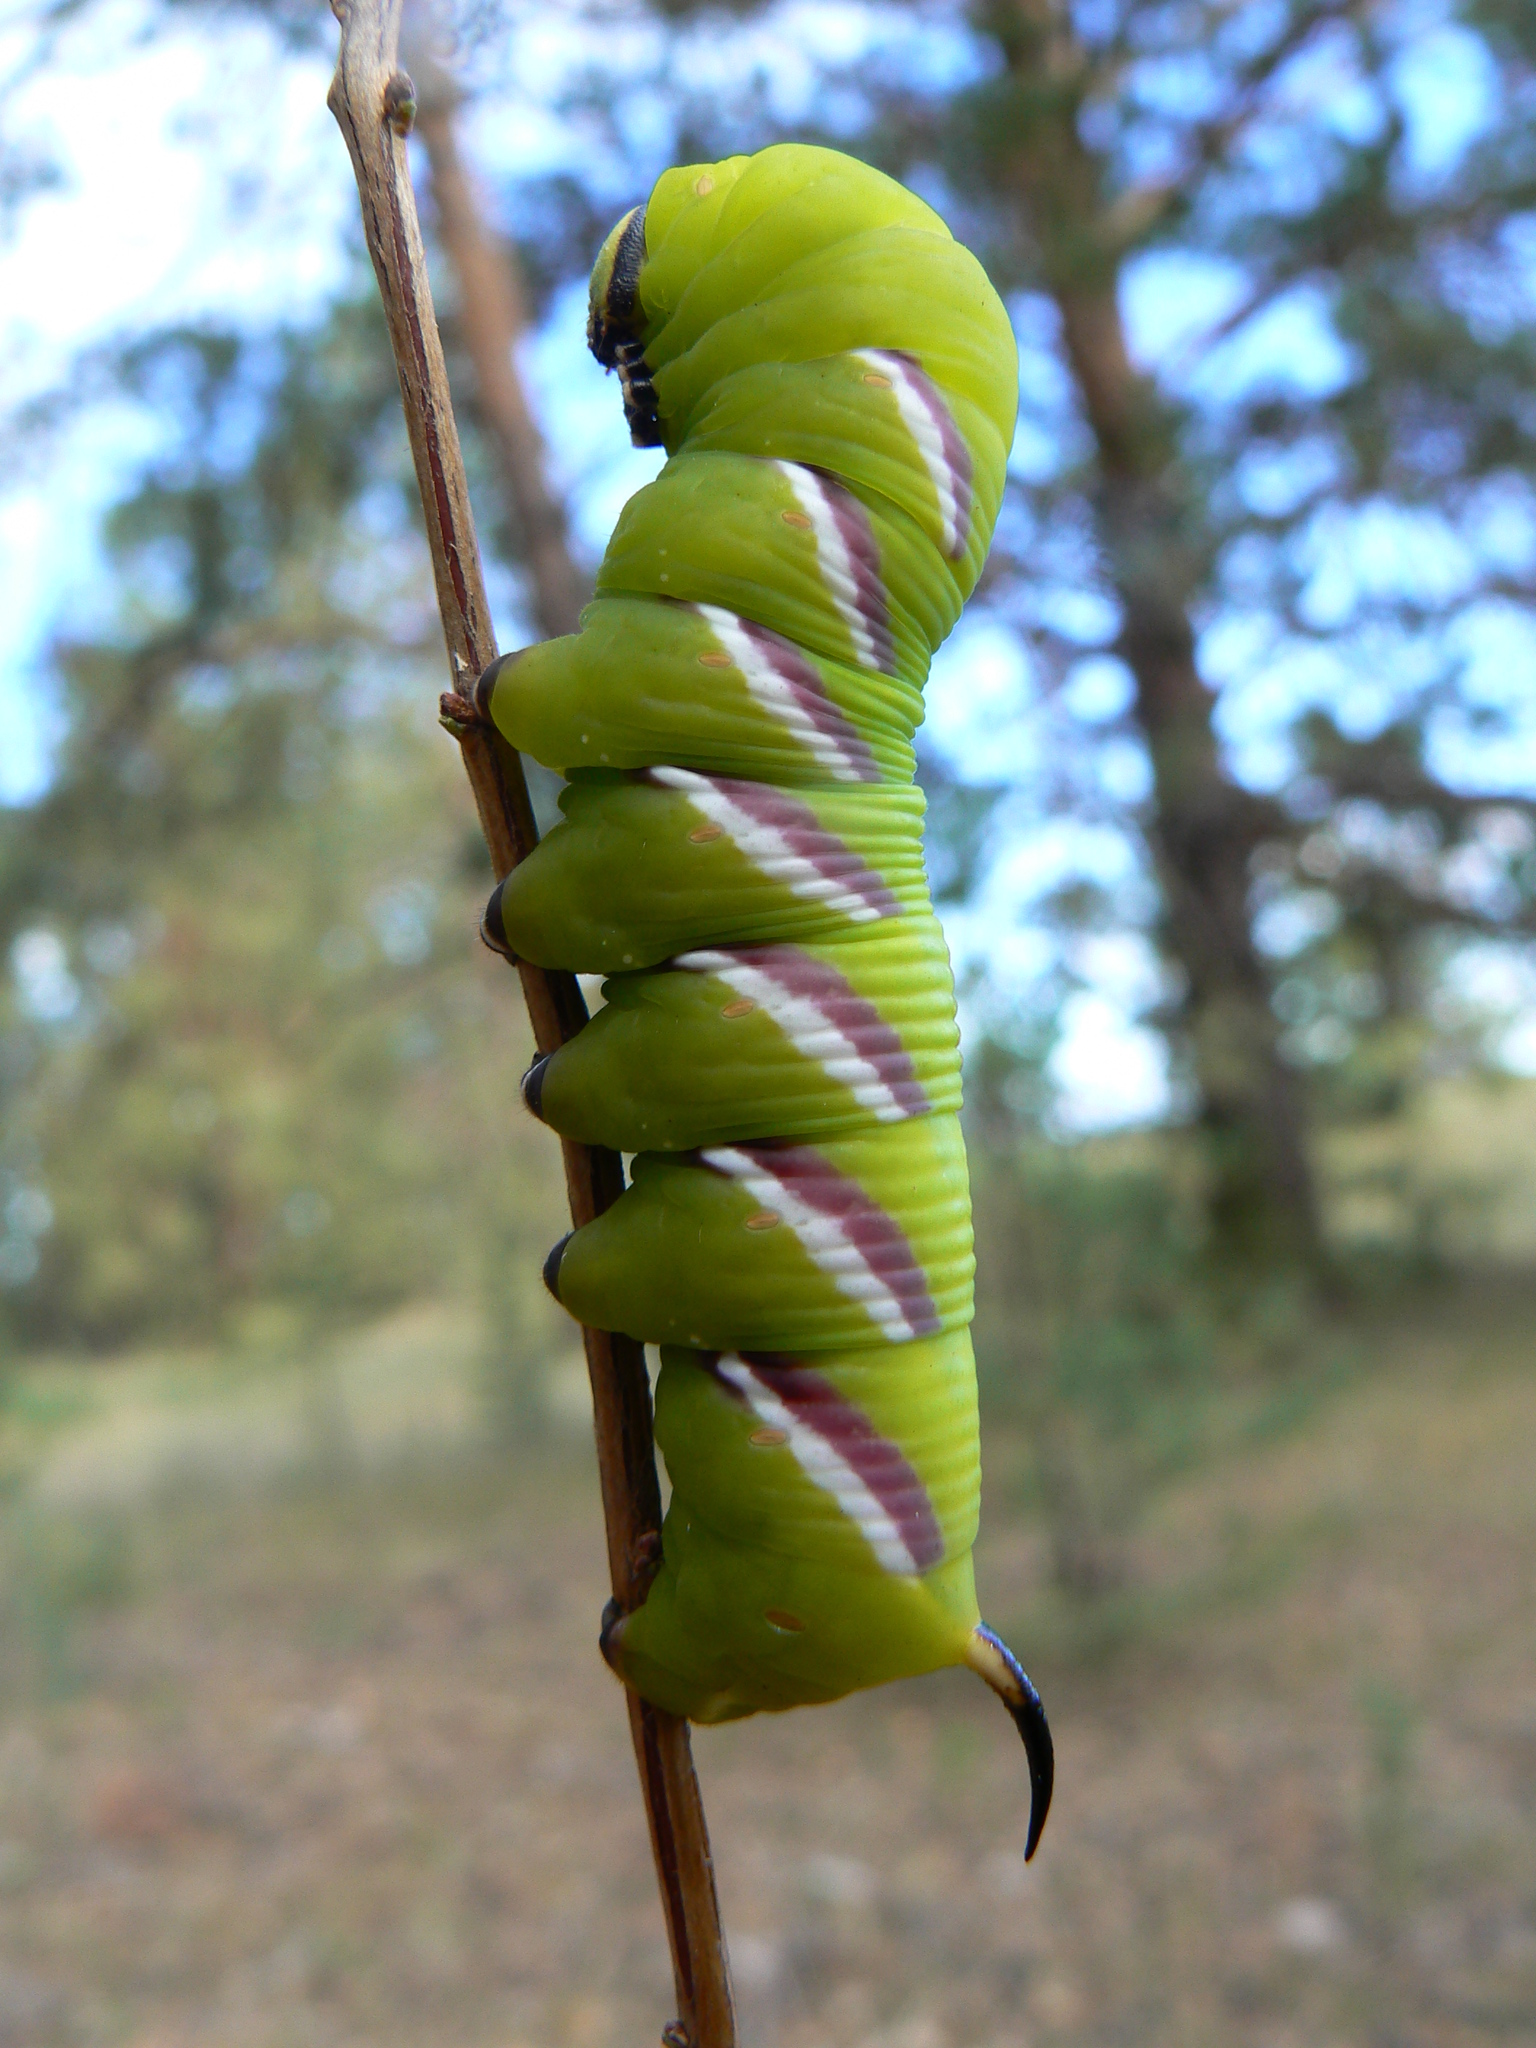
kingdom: Animalia
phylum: Arthropoda
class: Insecta
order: Lepidoptera
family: Sphingidae
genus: Sphinx
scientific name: Sphinx ligustri
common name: Privet hawk-moth
